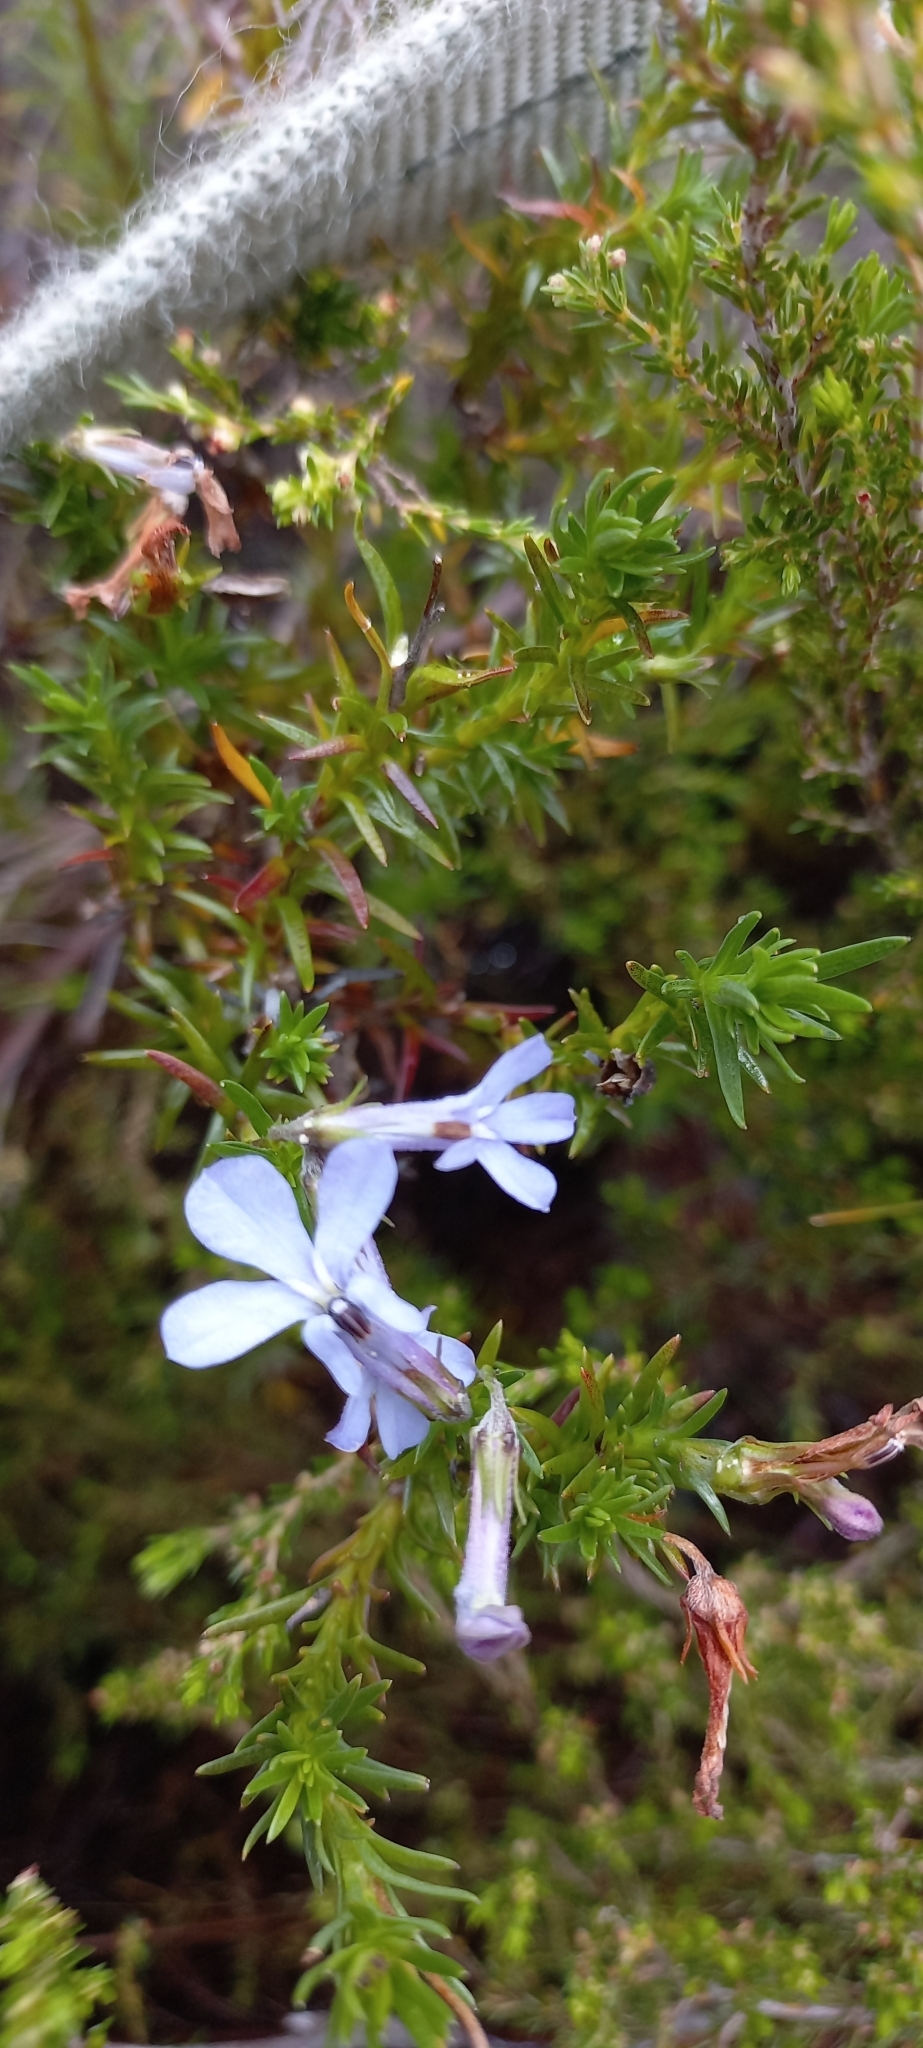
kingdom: Plantae
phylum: Tracheophyta
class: Magnoliopsida
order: Asterales
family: Campanulaceae
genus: Lobelia
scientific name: Lobelia pinifolia
